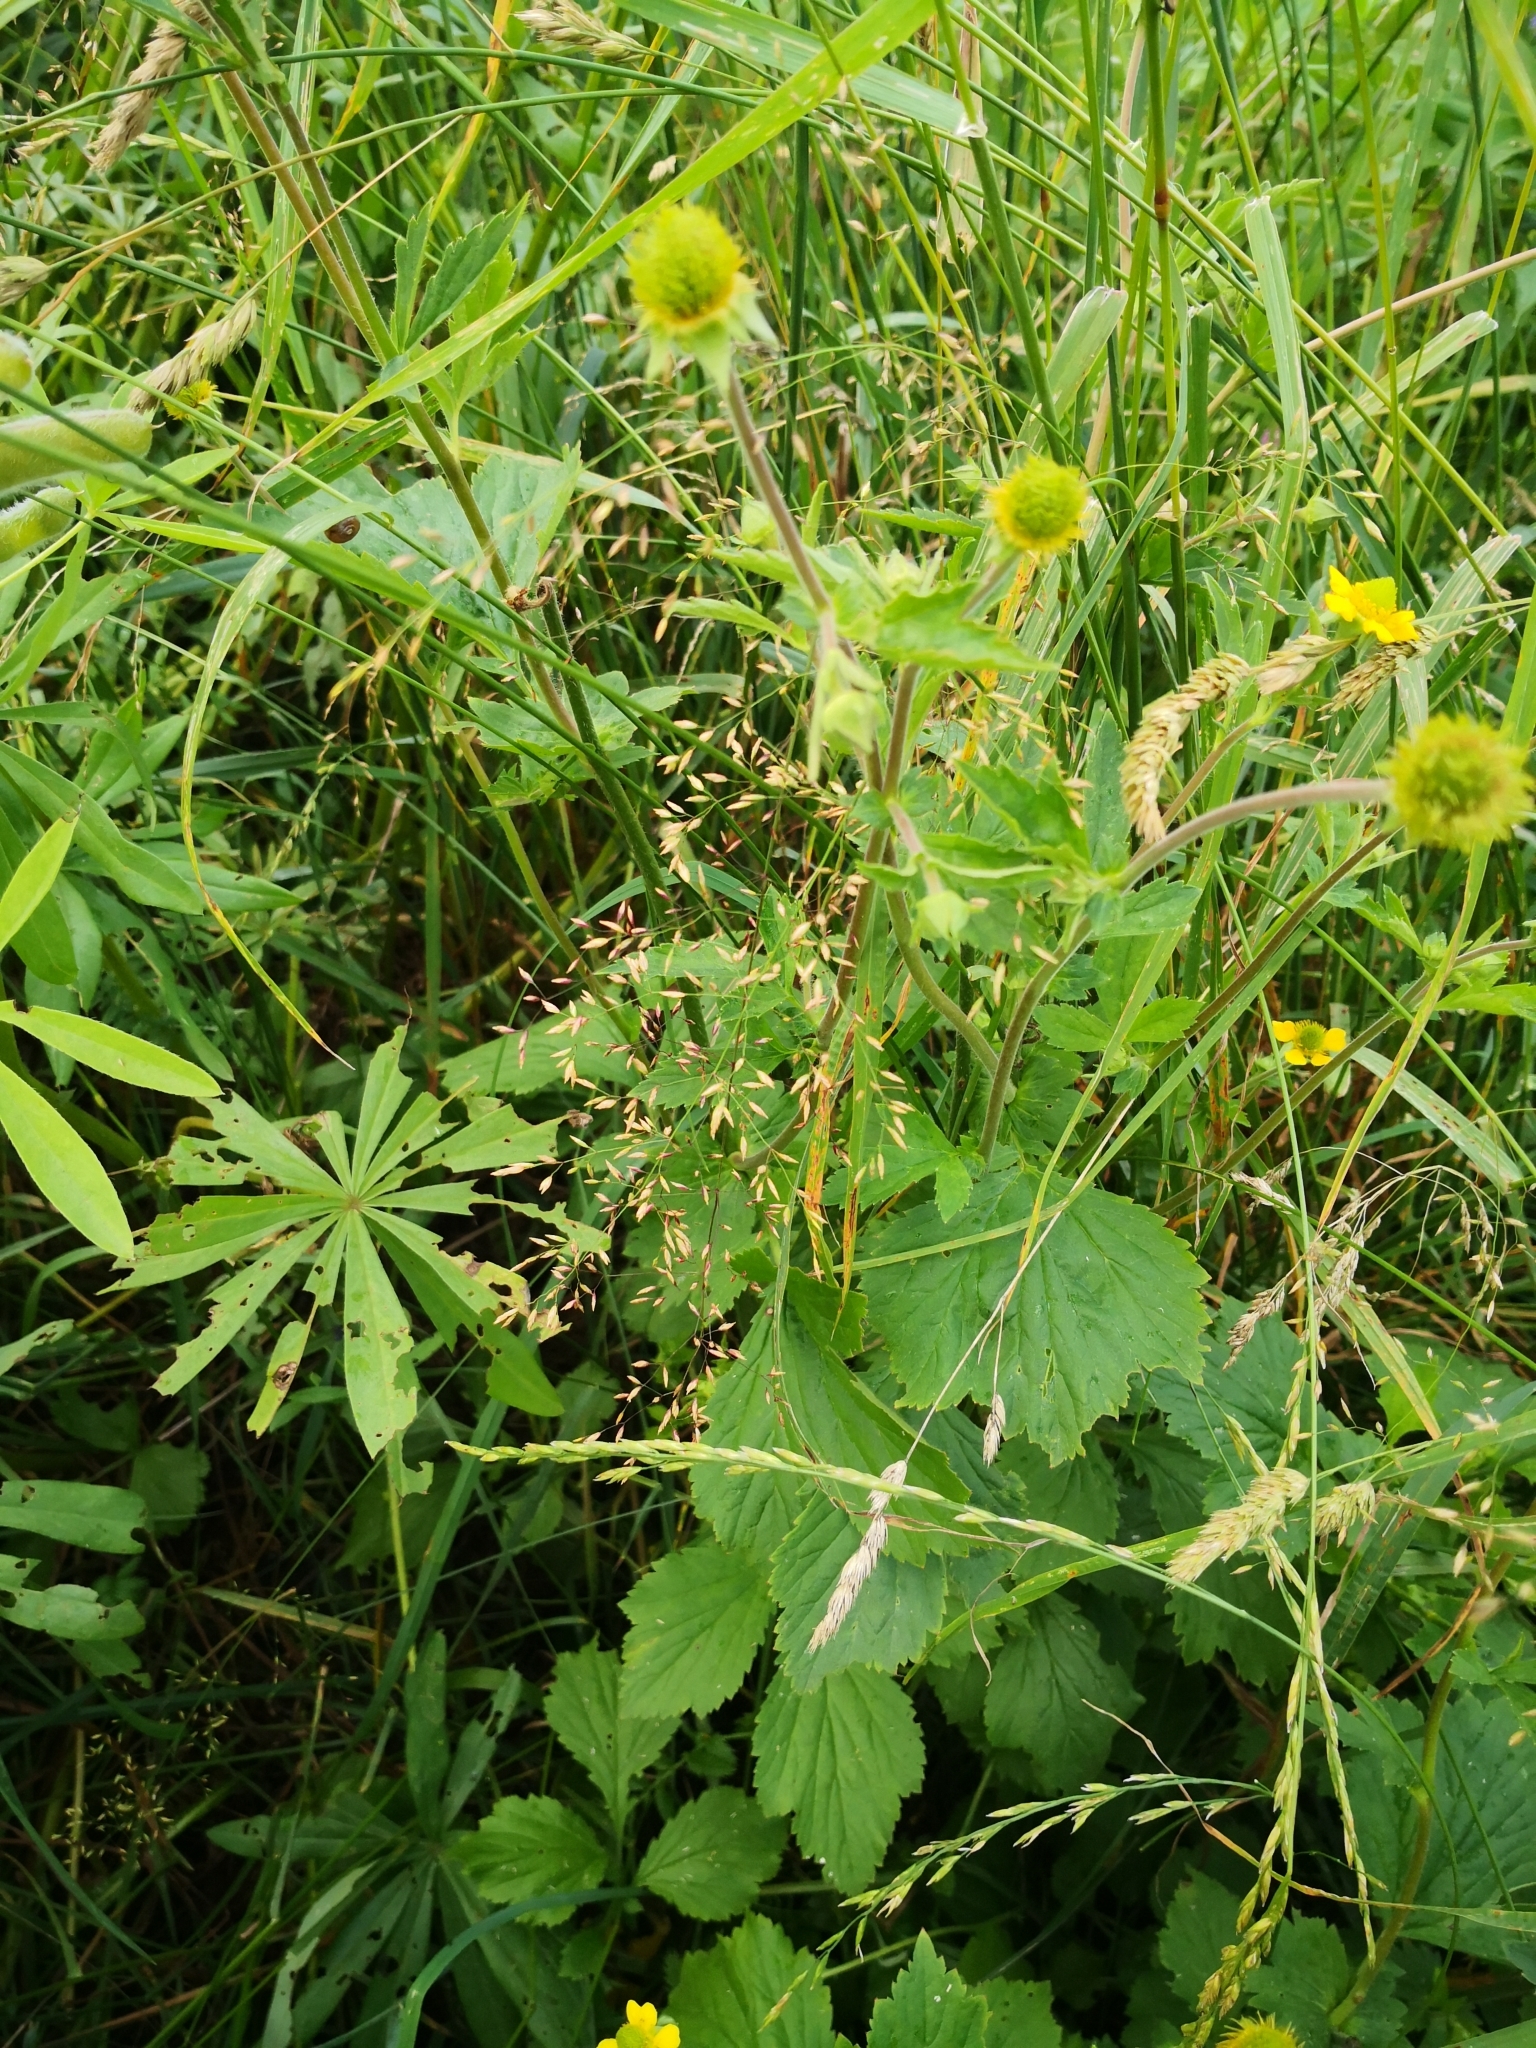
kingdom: Plantae
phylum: Tracheophyta
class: Magnoliopsida
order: Rosales
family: Rosaceae
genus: Geum
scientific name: Geum aleppicum
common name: Yellow avens
